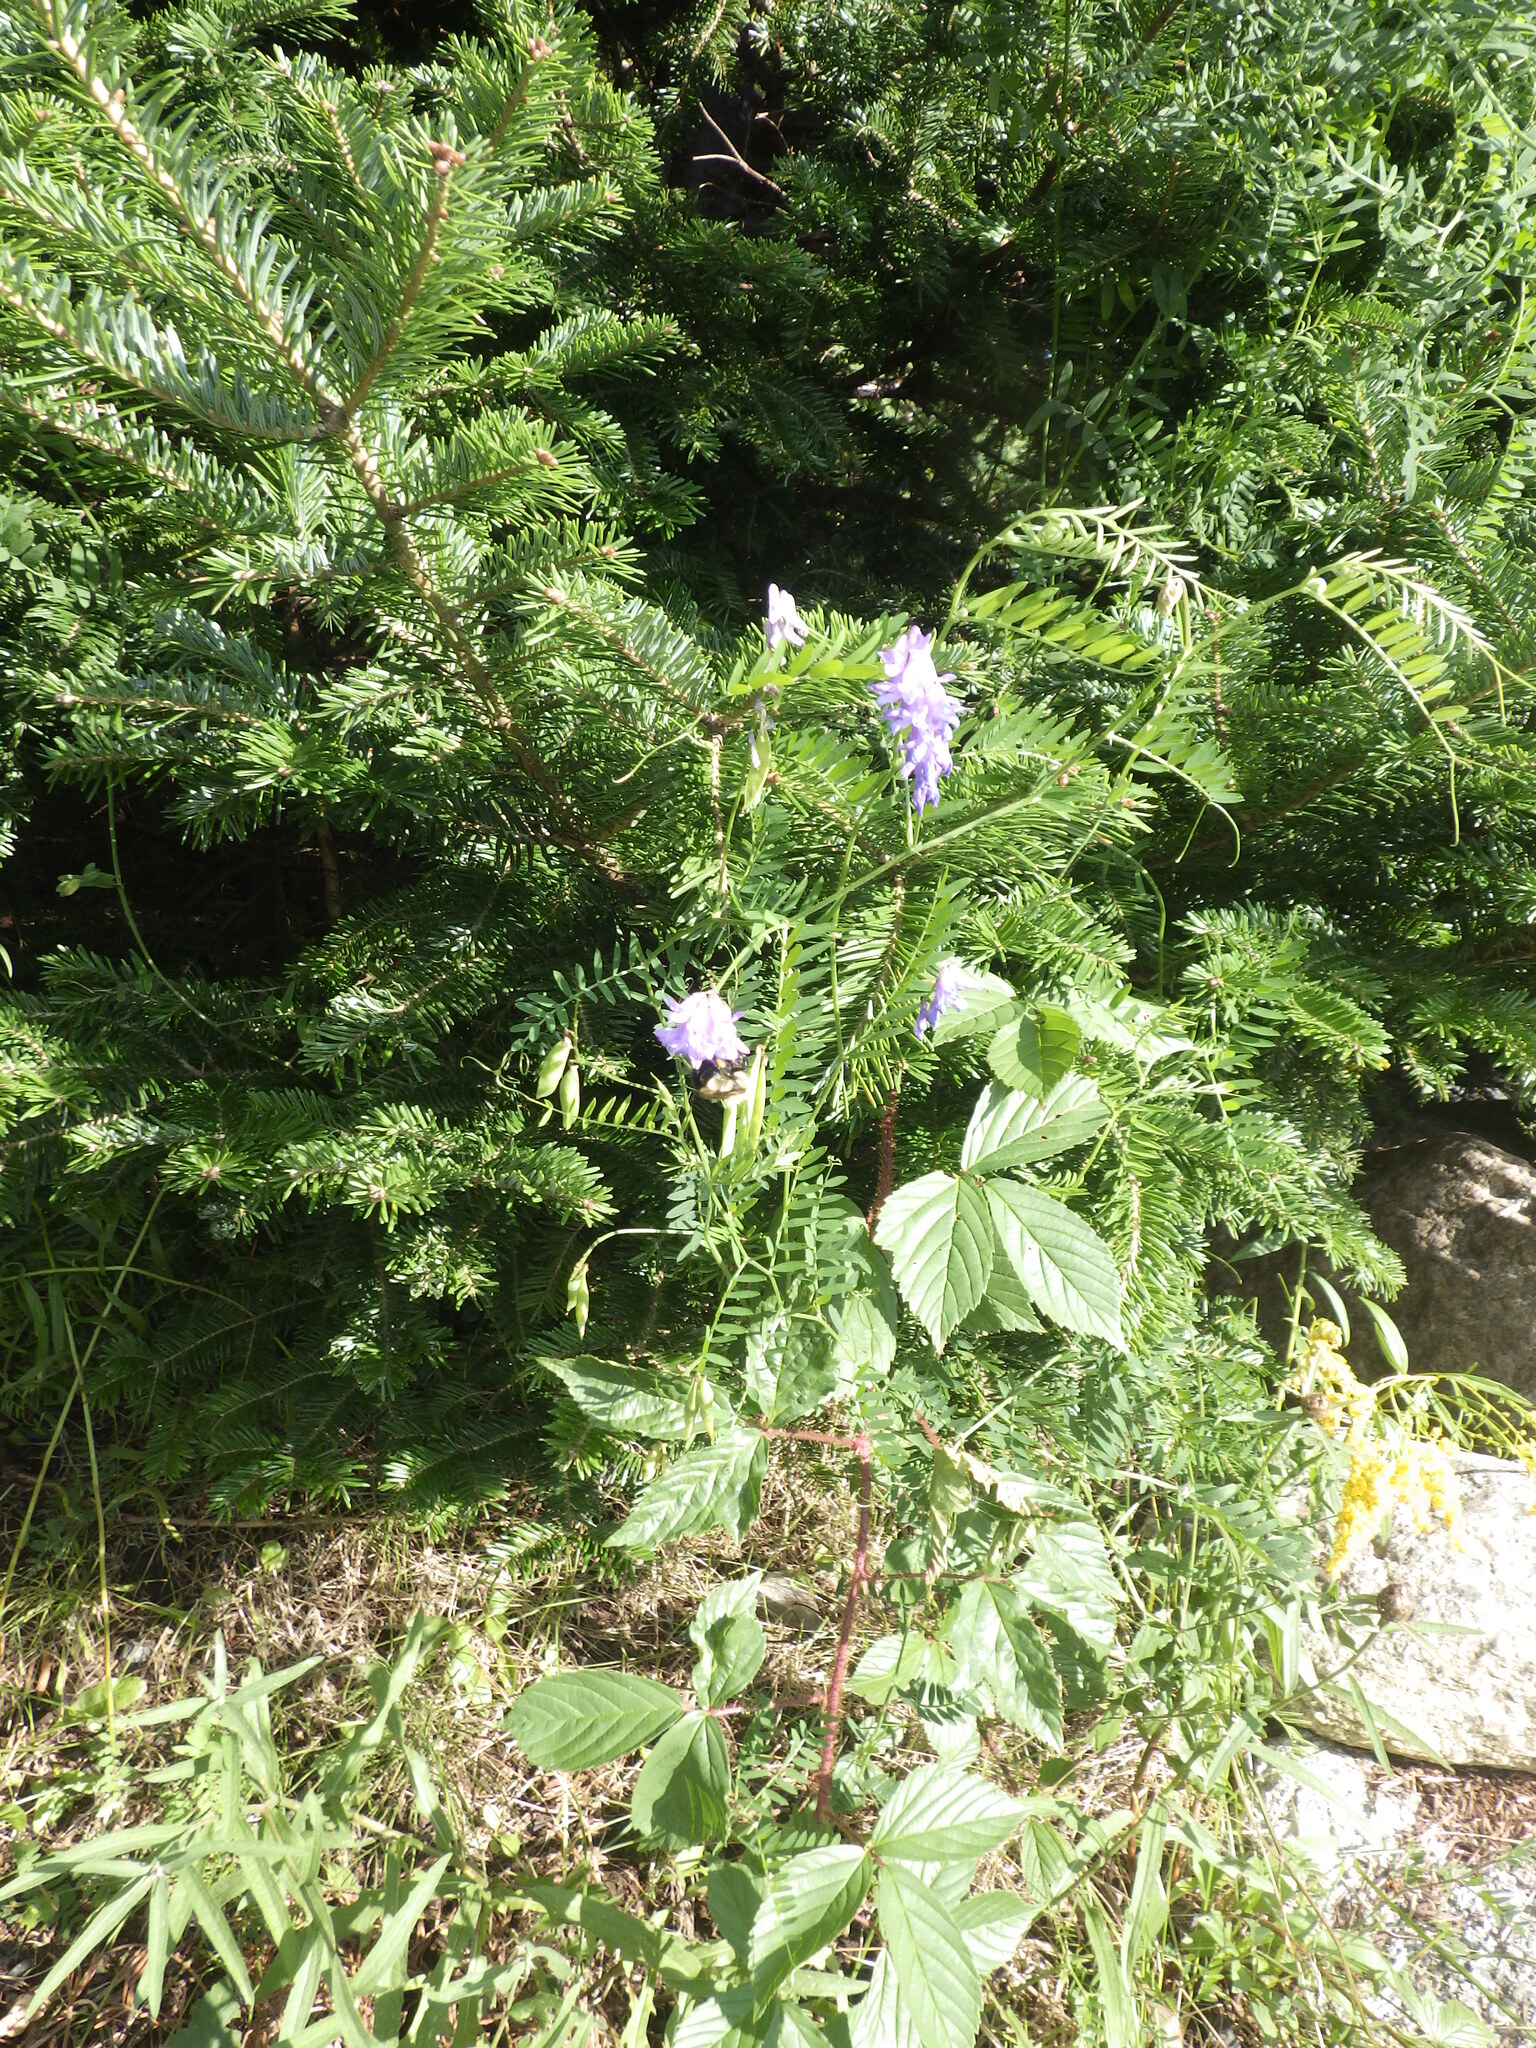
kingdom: Plantae
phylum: Tracheophyta
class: Magnoliopsida
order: Fabales
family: Fabaceae
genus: Vicia
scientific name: Vicia cracca
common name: Bird vetch
